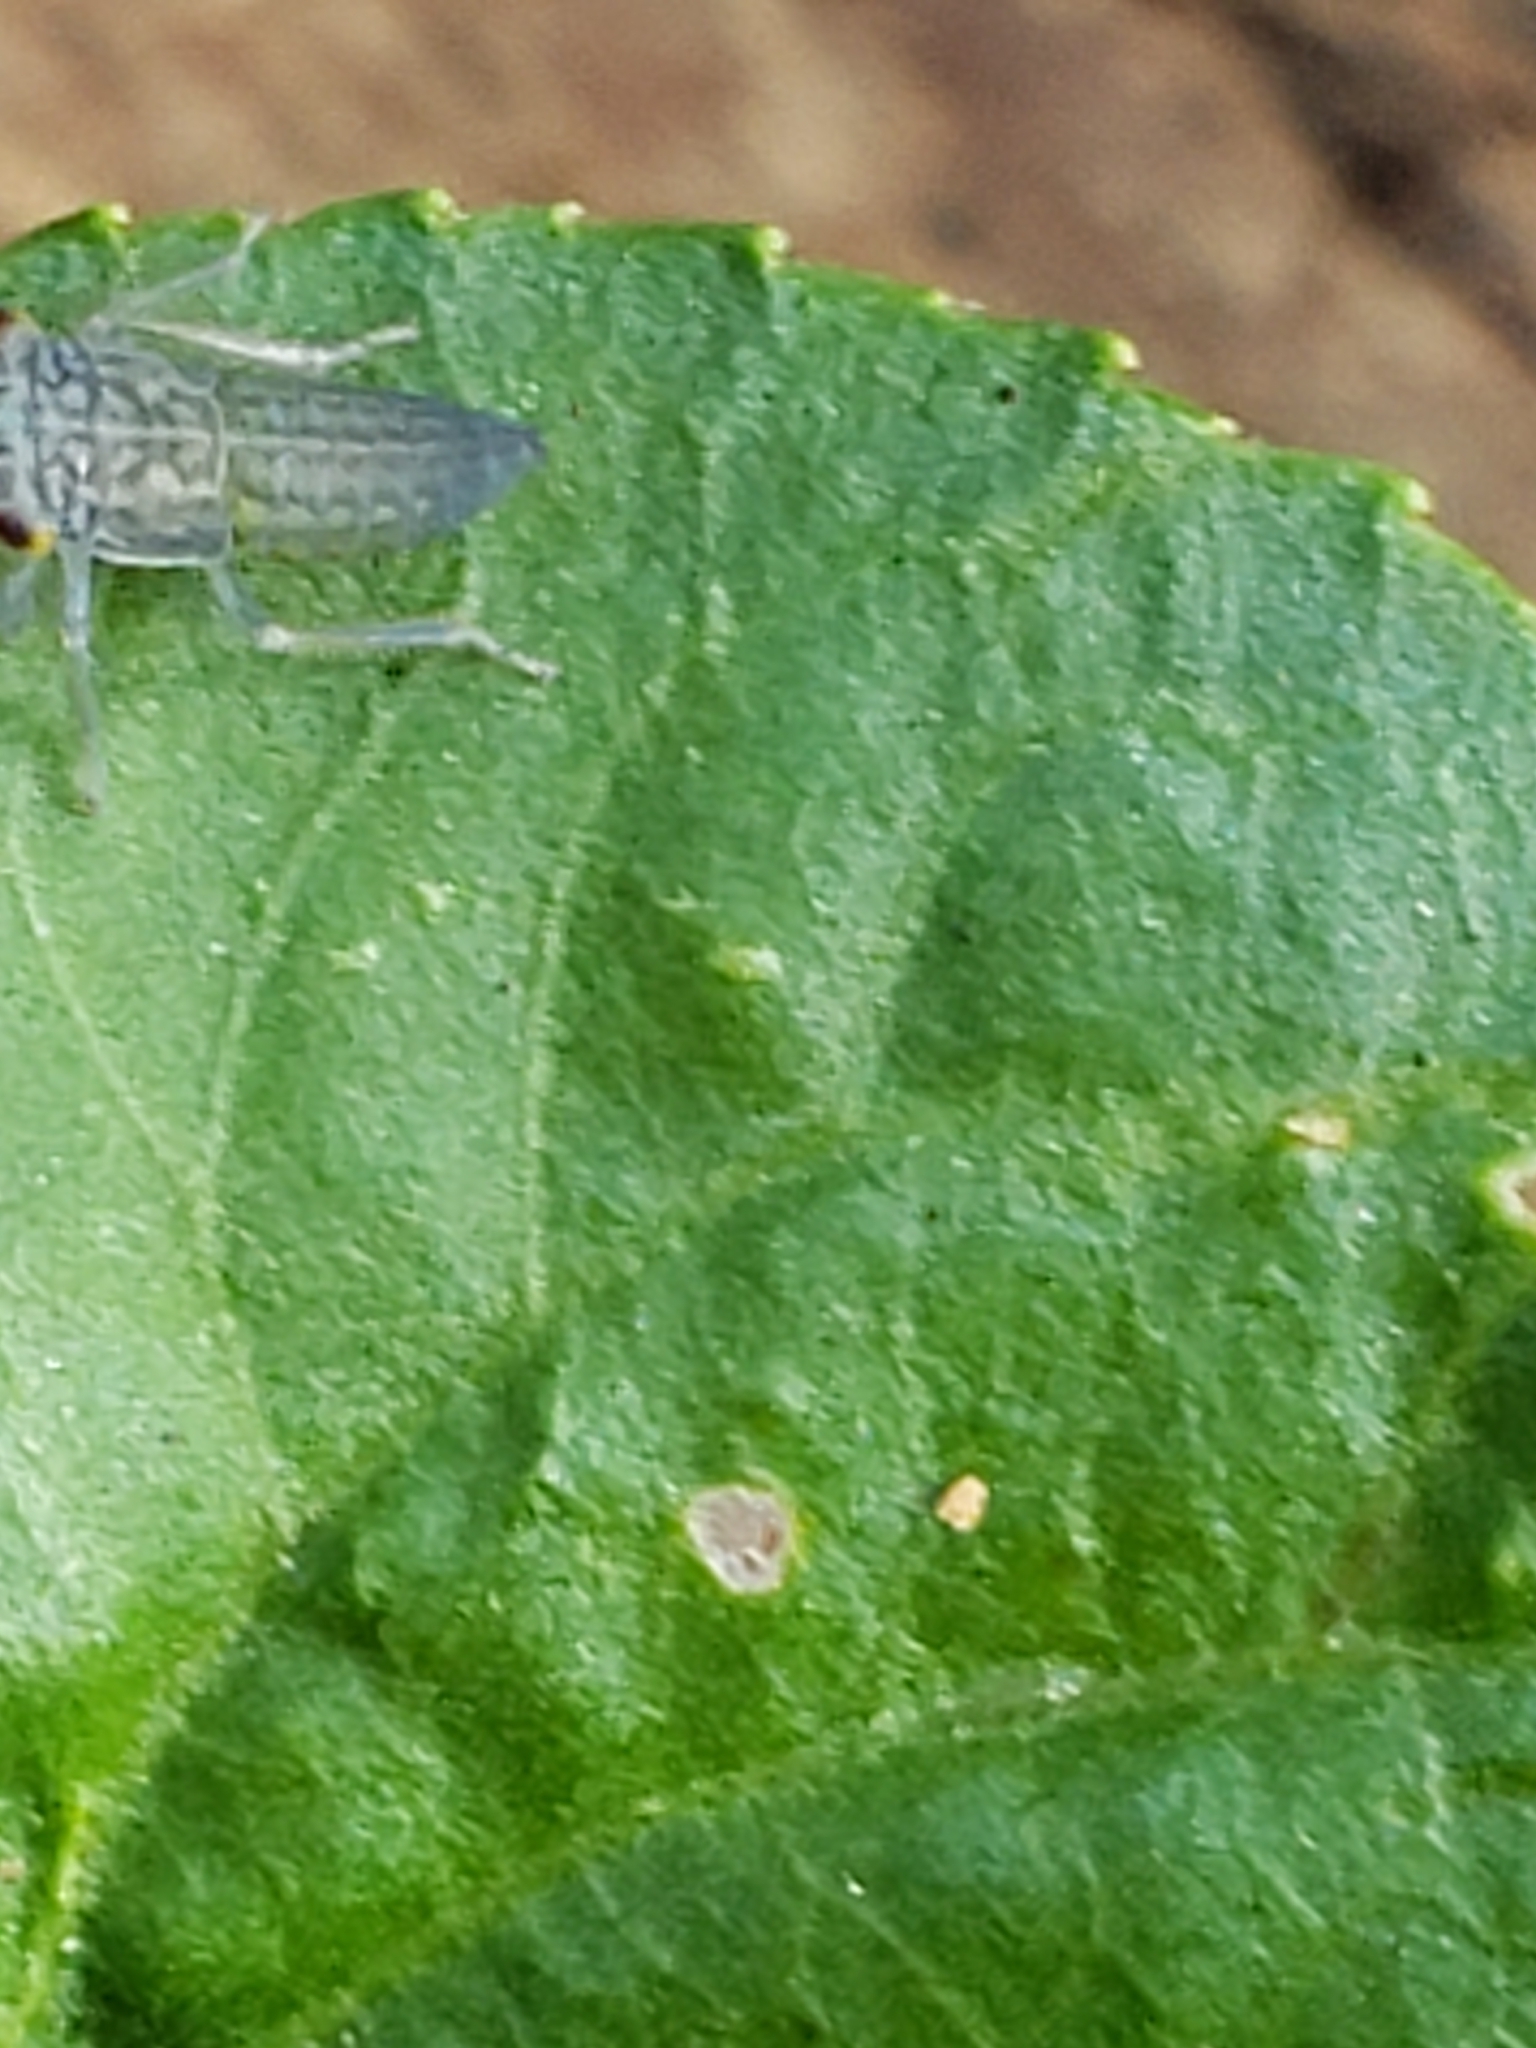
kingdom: Animalia
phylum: Arthropoda
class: Insecta
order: Hemiptera
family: Cicadellidae
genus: Oncometopia
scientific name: Oncometopia orbona
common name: Broad-headed sharpshooter
